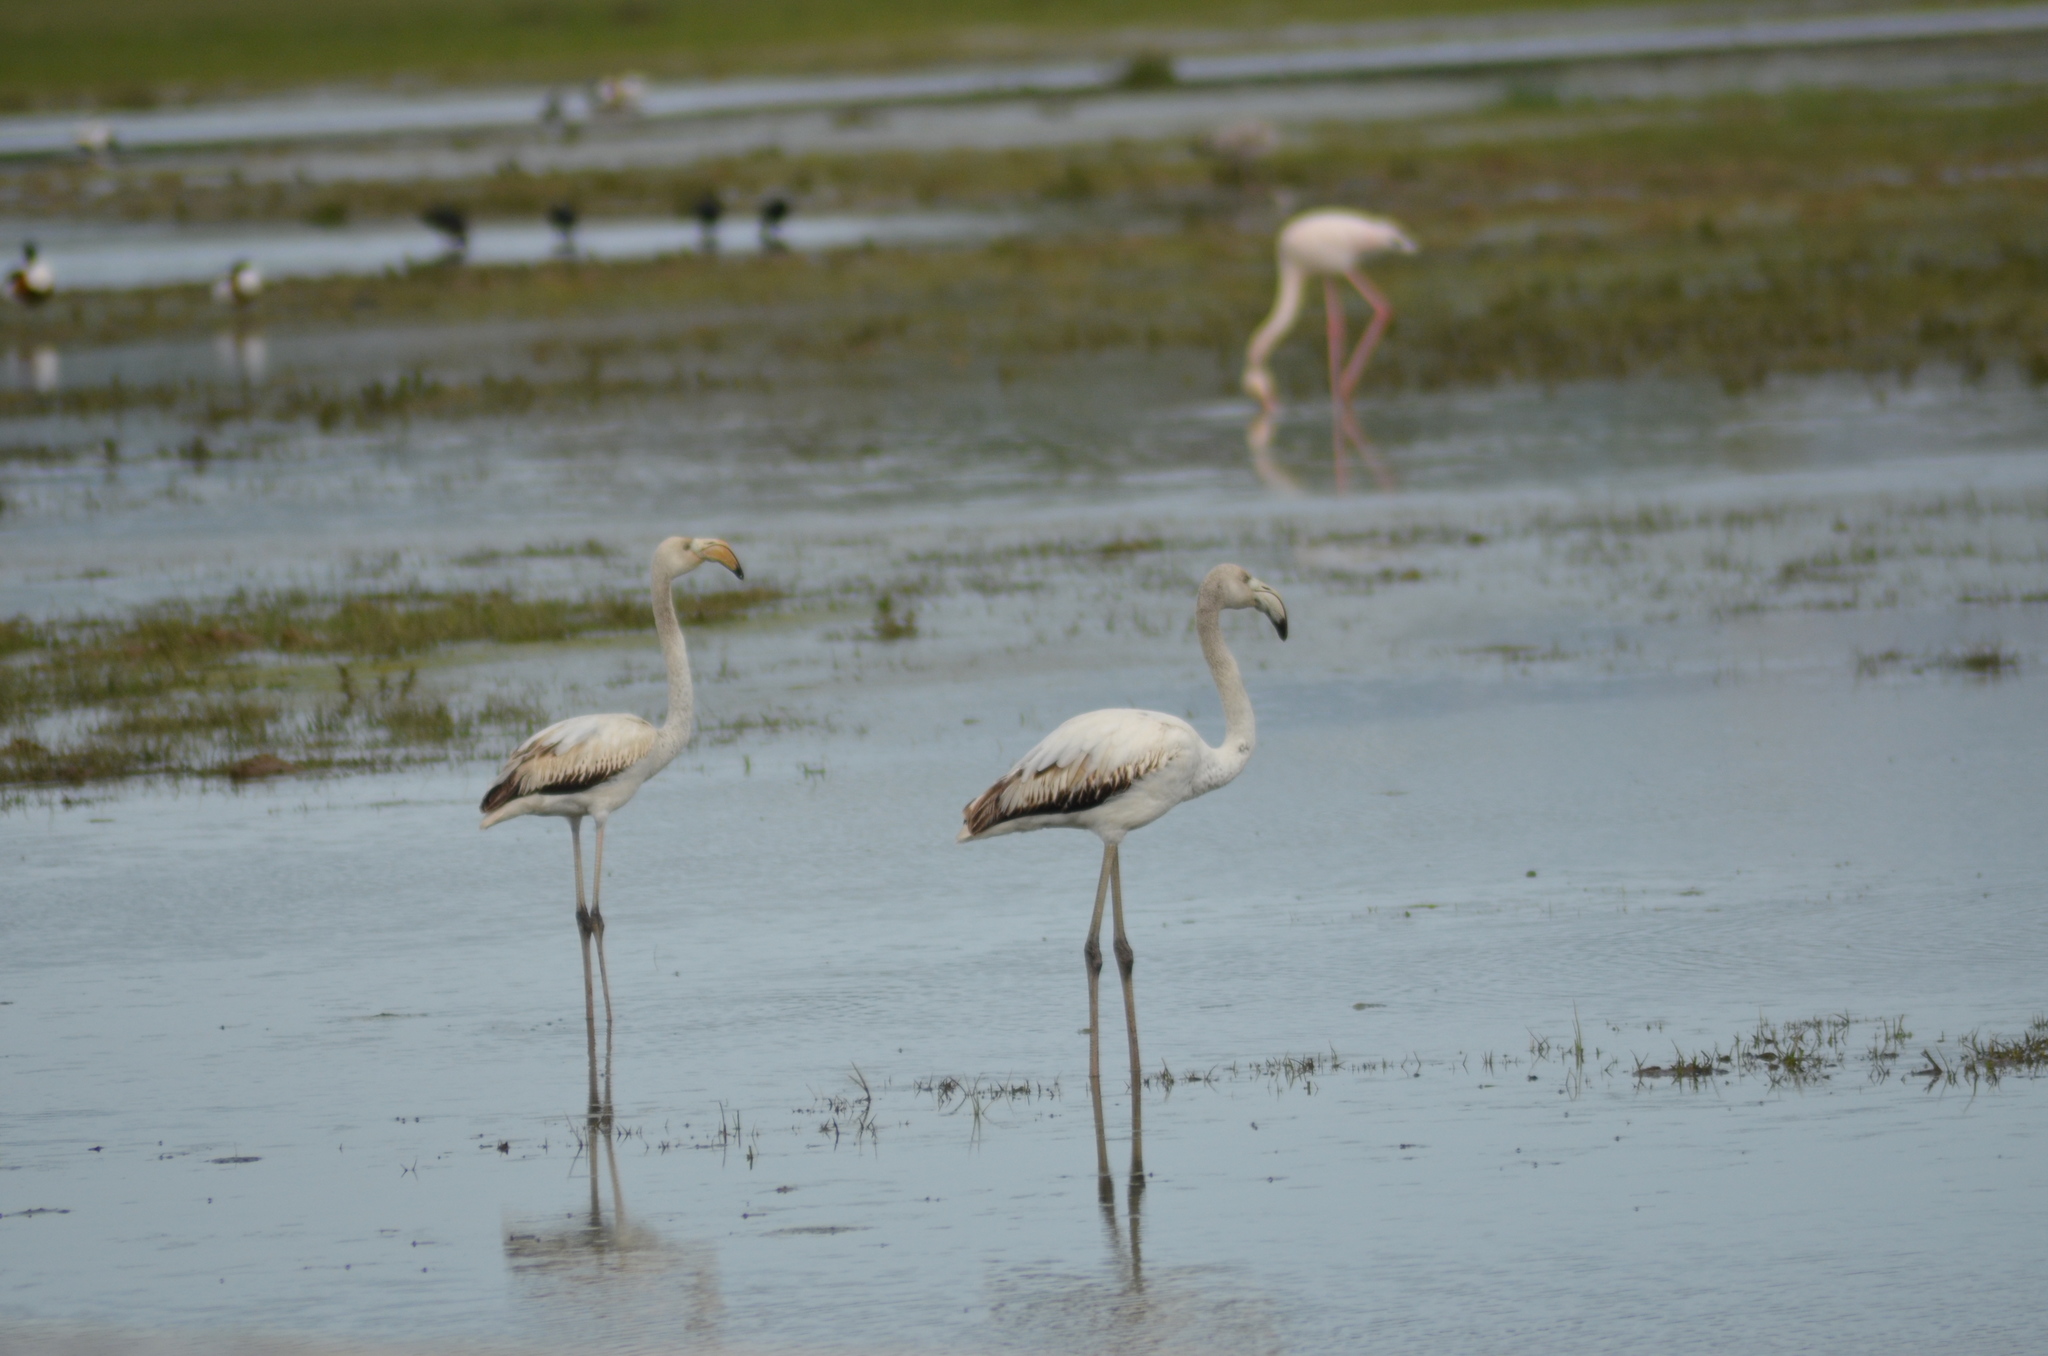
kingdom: Animalia
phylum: Chordata
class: Aves
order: Phoenicopteriformes
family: Phoenicopteridae
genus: Phoenicopterus
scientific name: Phoenicopterus roseus
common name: Greater flamingo
